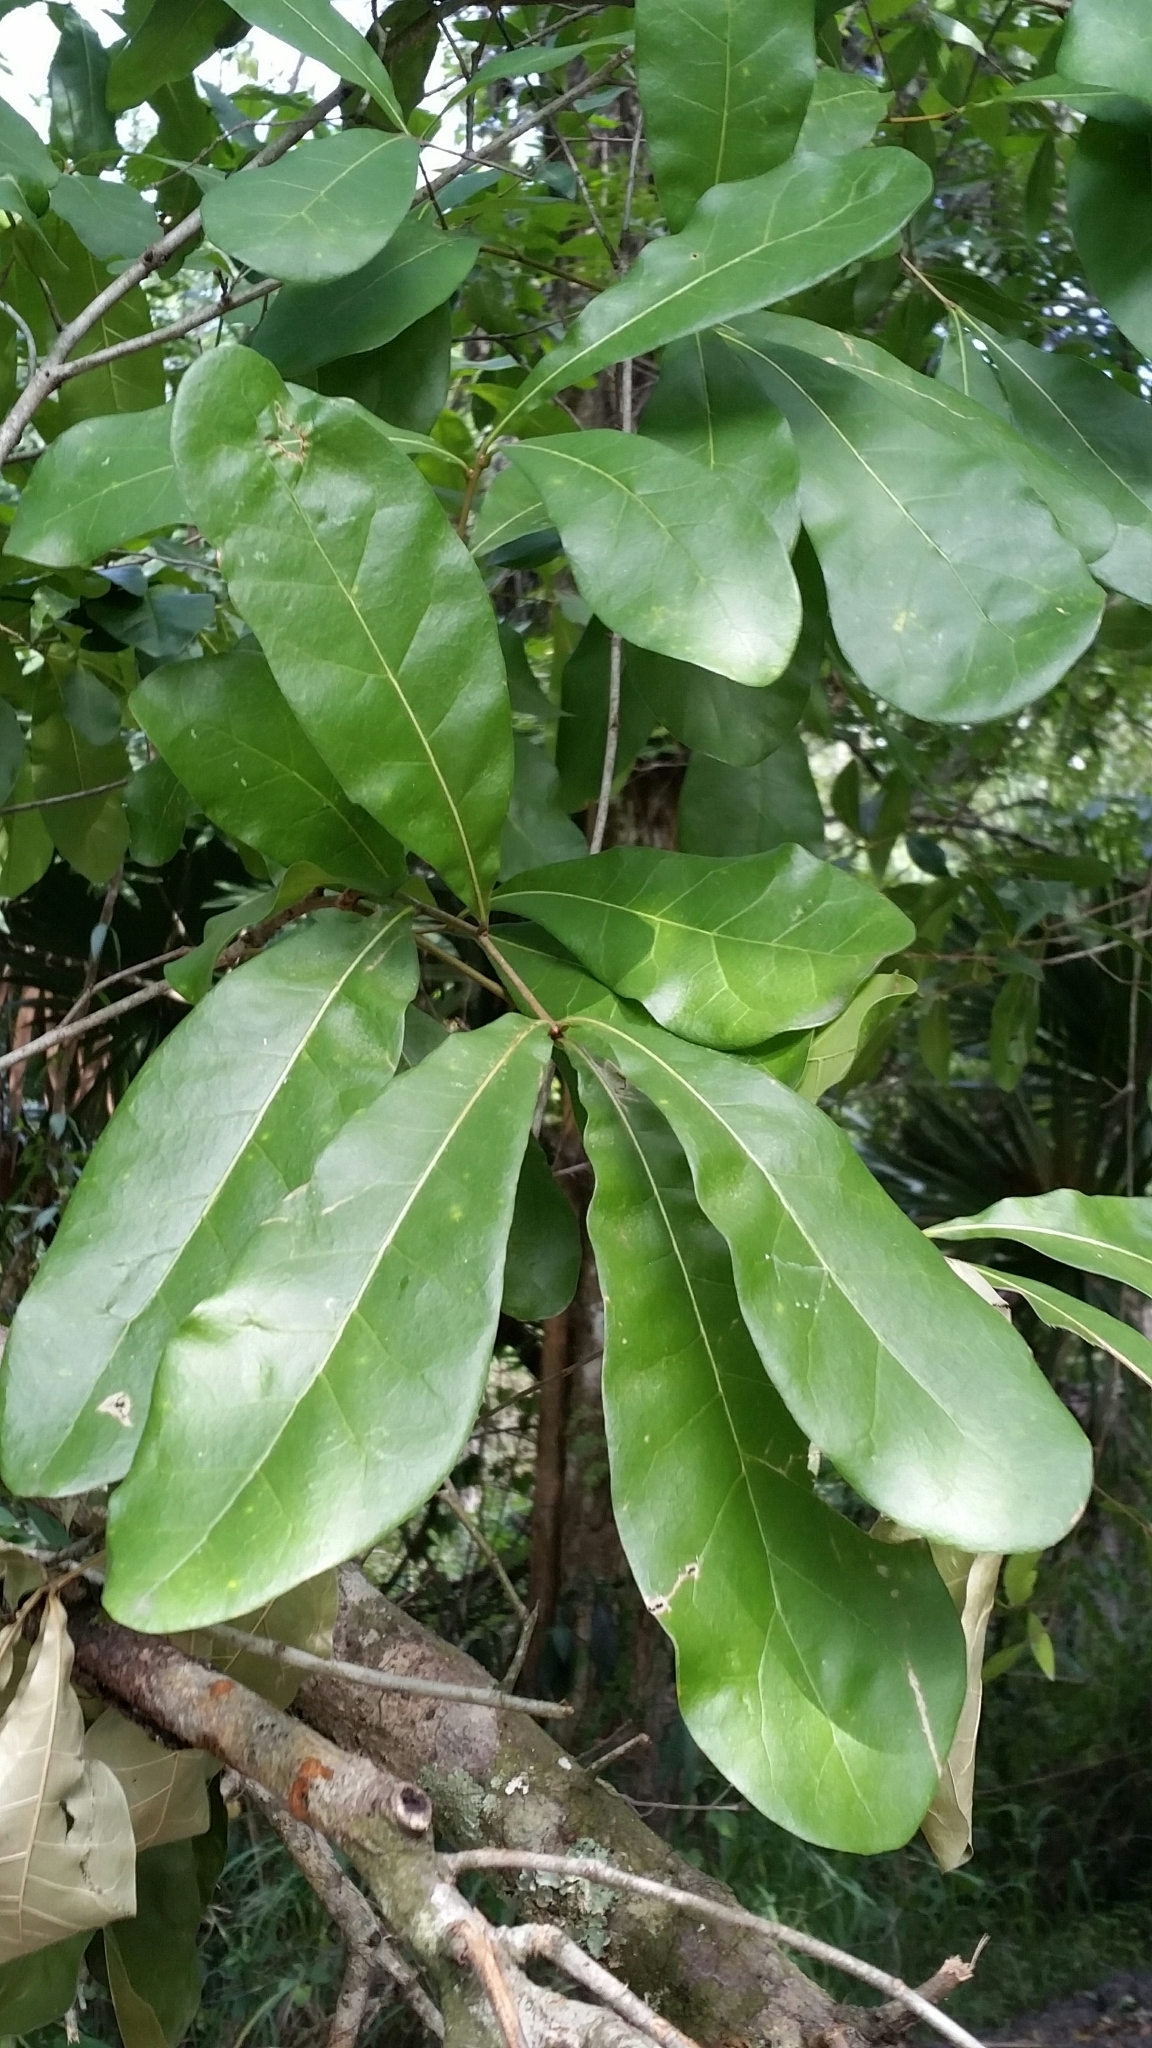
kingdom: Plantae
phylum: Tracheophyta
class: Magnoliopsida
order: Fagales
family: Fagaceae
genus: Quercus
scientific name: Quercus laurifolia
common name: Swamp laurel oak
